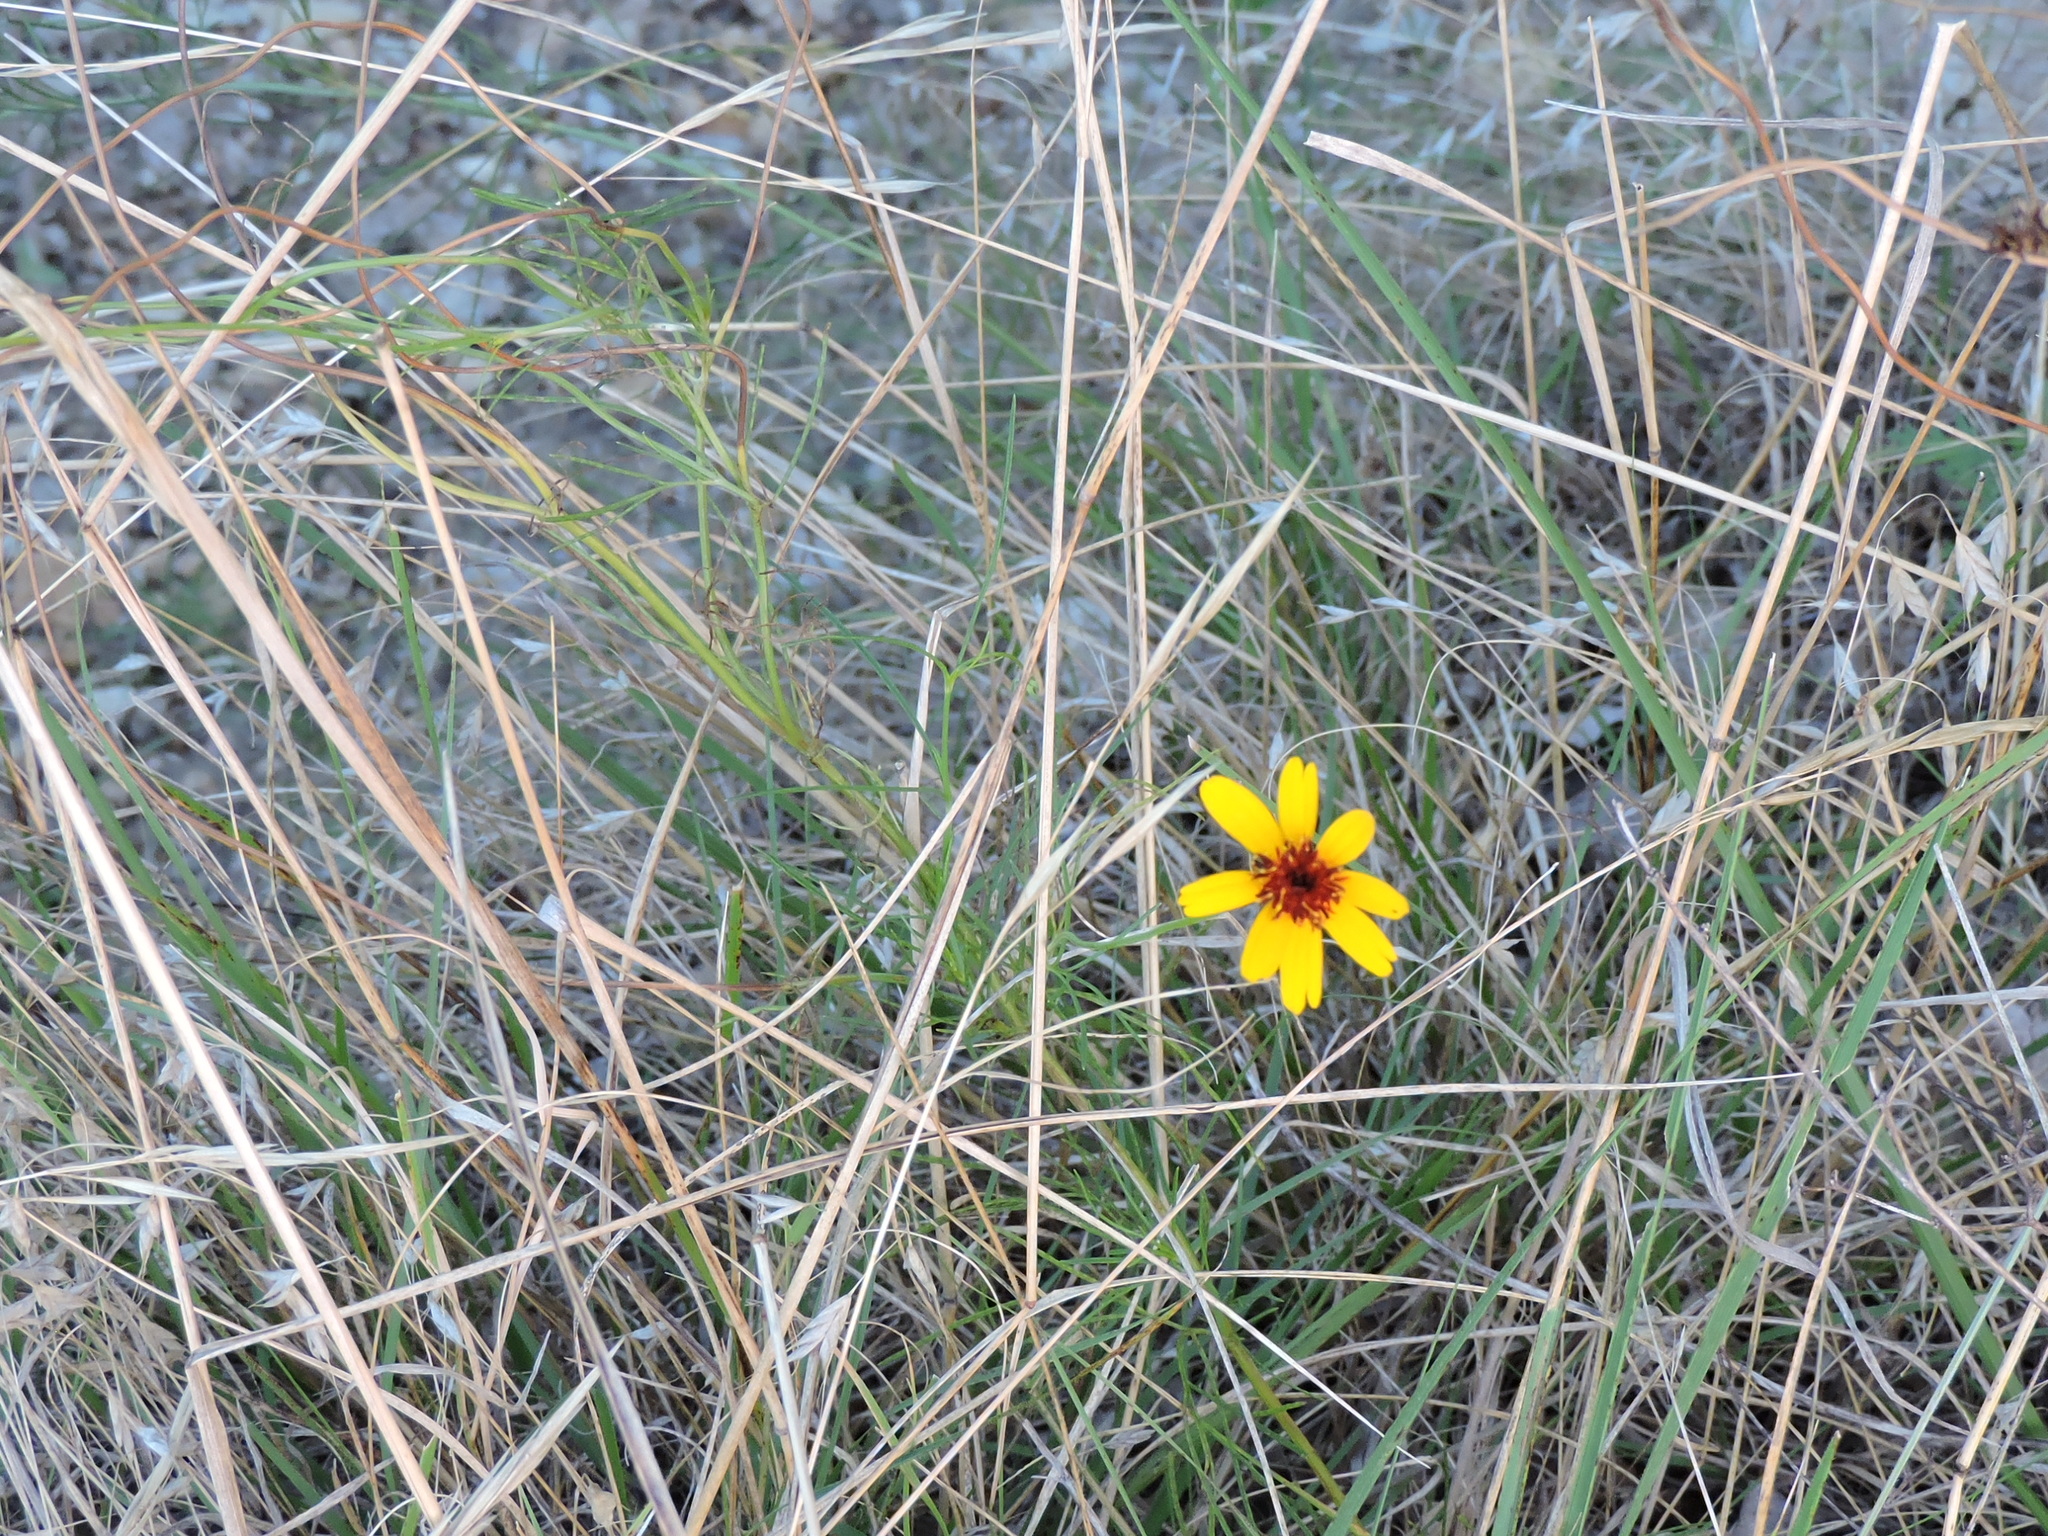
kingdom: Plantae
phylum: Tracheophyta
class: Magnoliopsida
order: Asterales
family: Asteraceae
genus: Thelesperma
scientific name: Thelesperma filifolium
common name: Stiff greenthread
